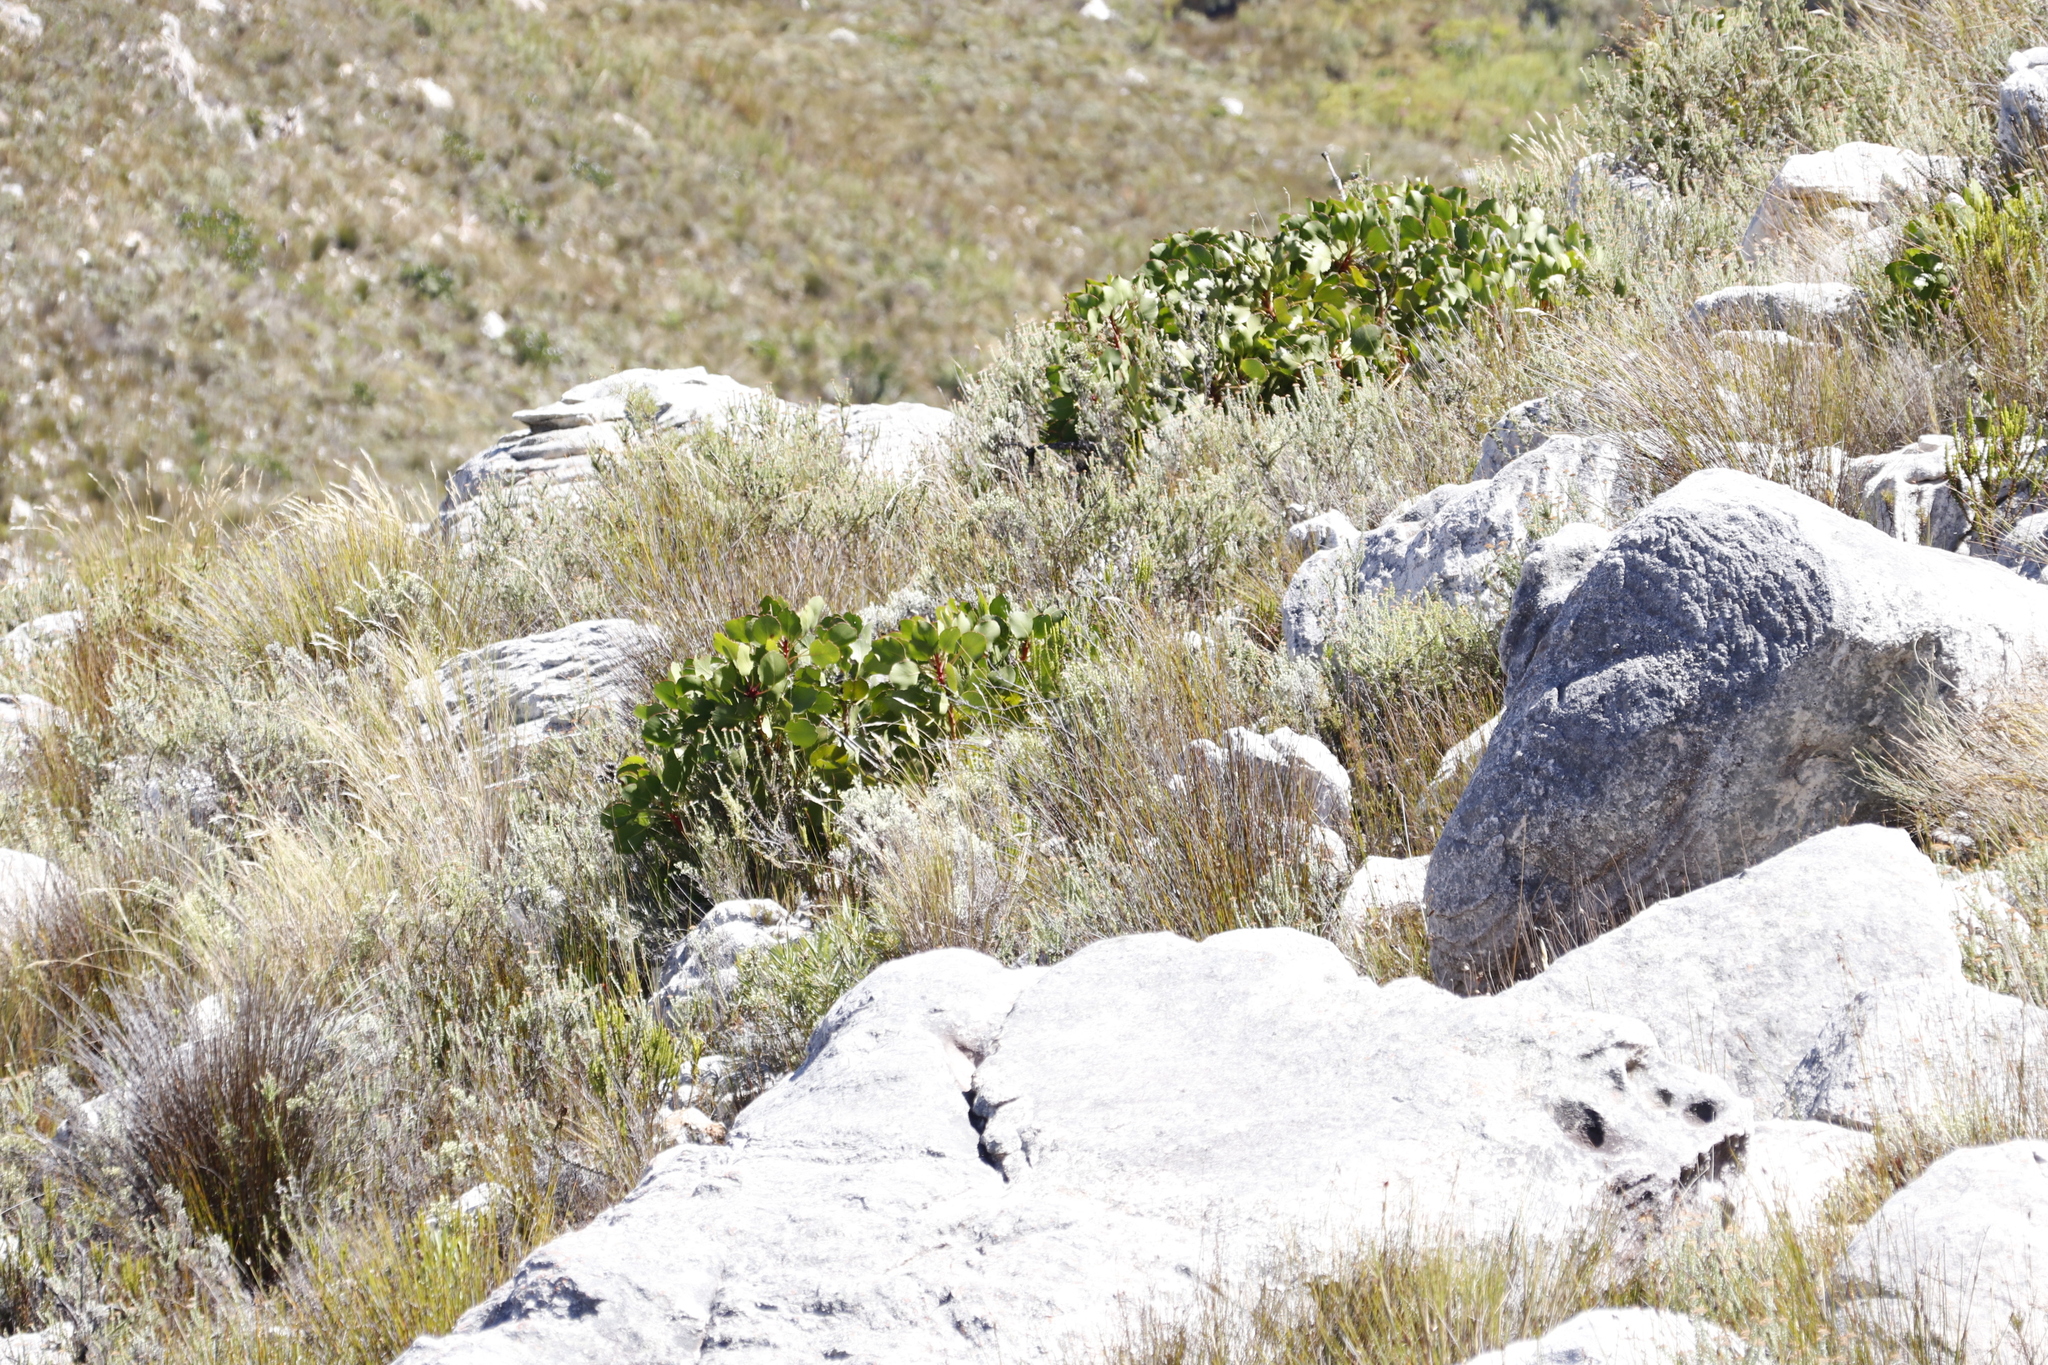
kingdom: Plantae
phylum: Tracheophyta
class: Magnoliopsida
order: Proteales
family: Proteaceae
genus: Protea
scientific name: Protea repens
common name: Sugarbush
